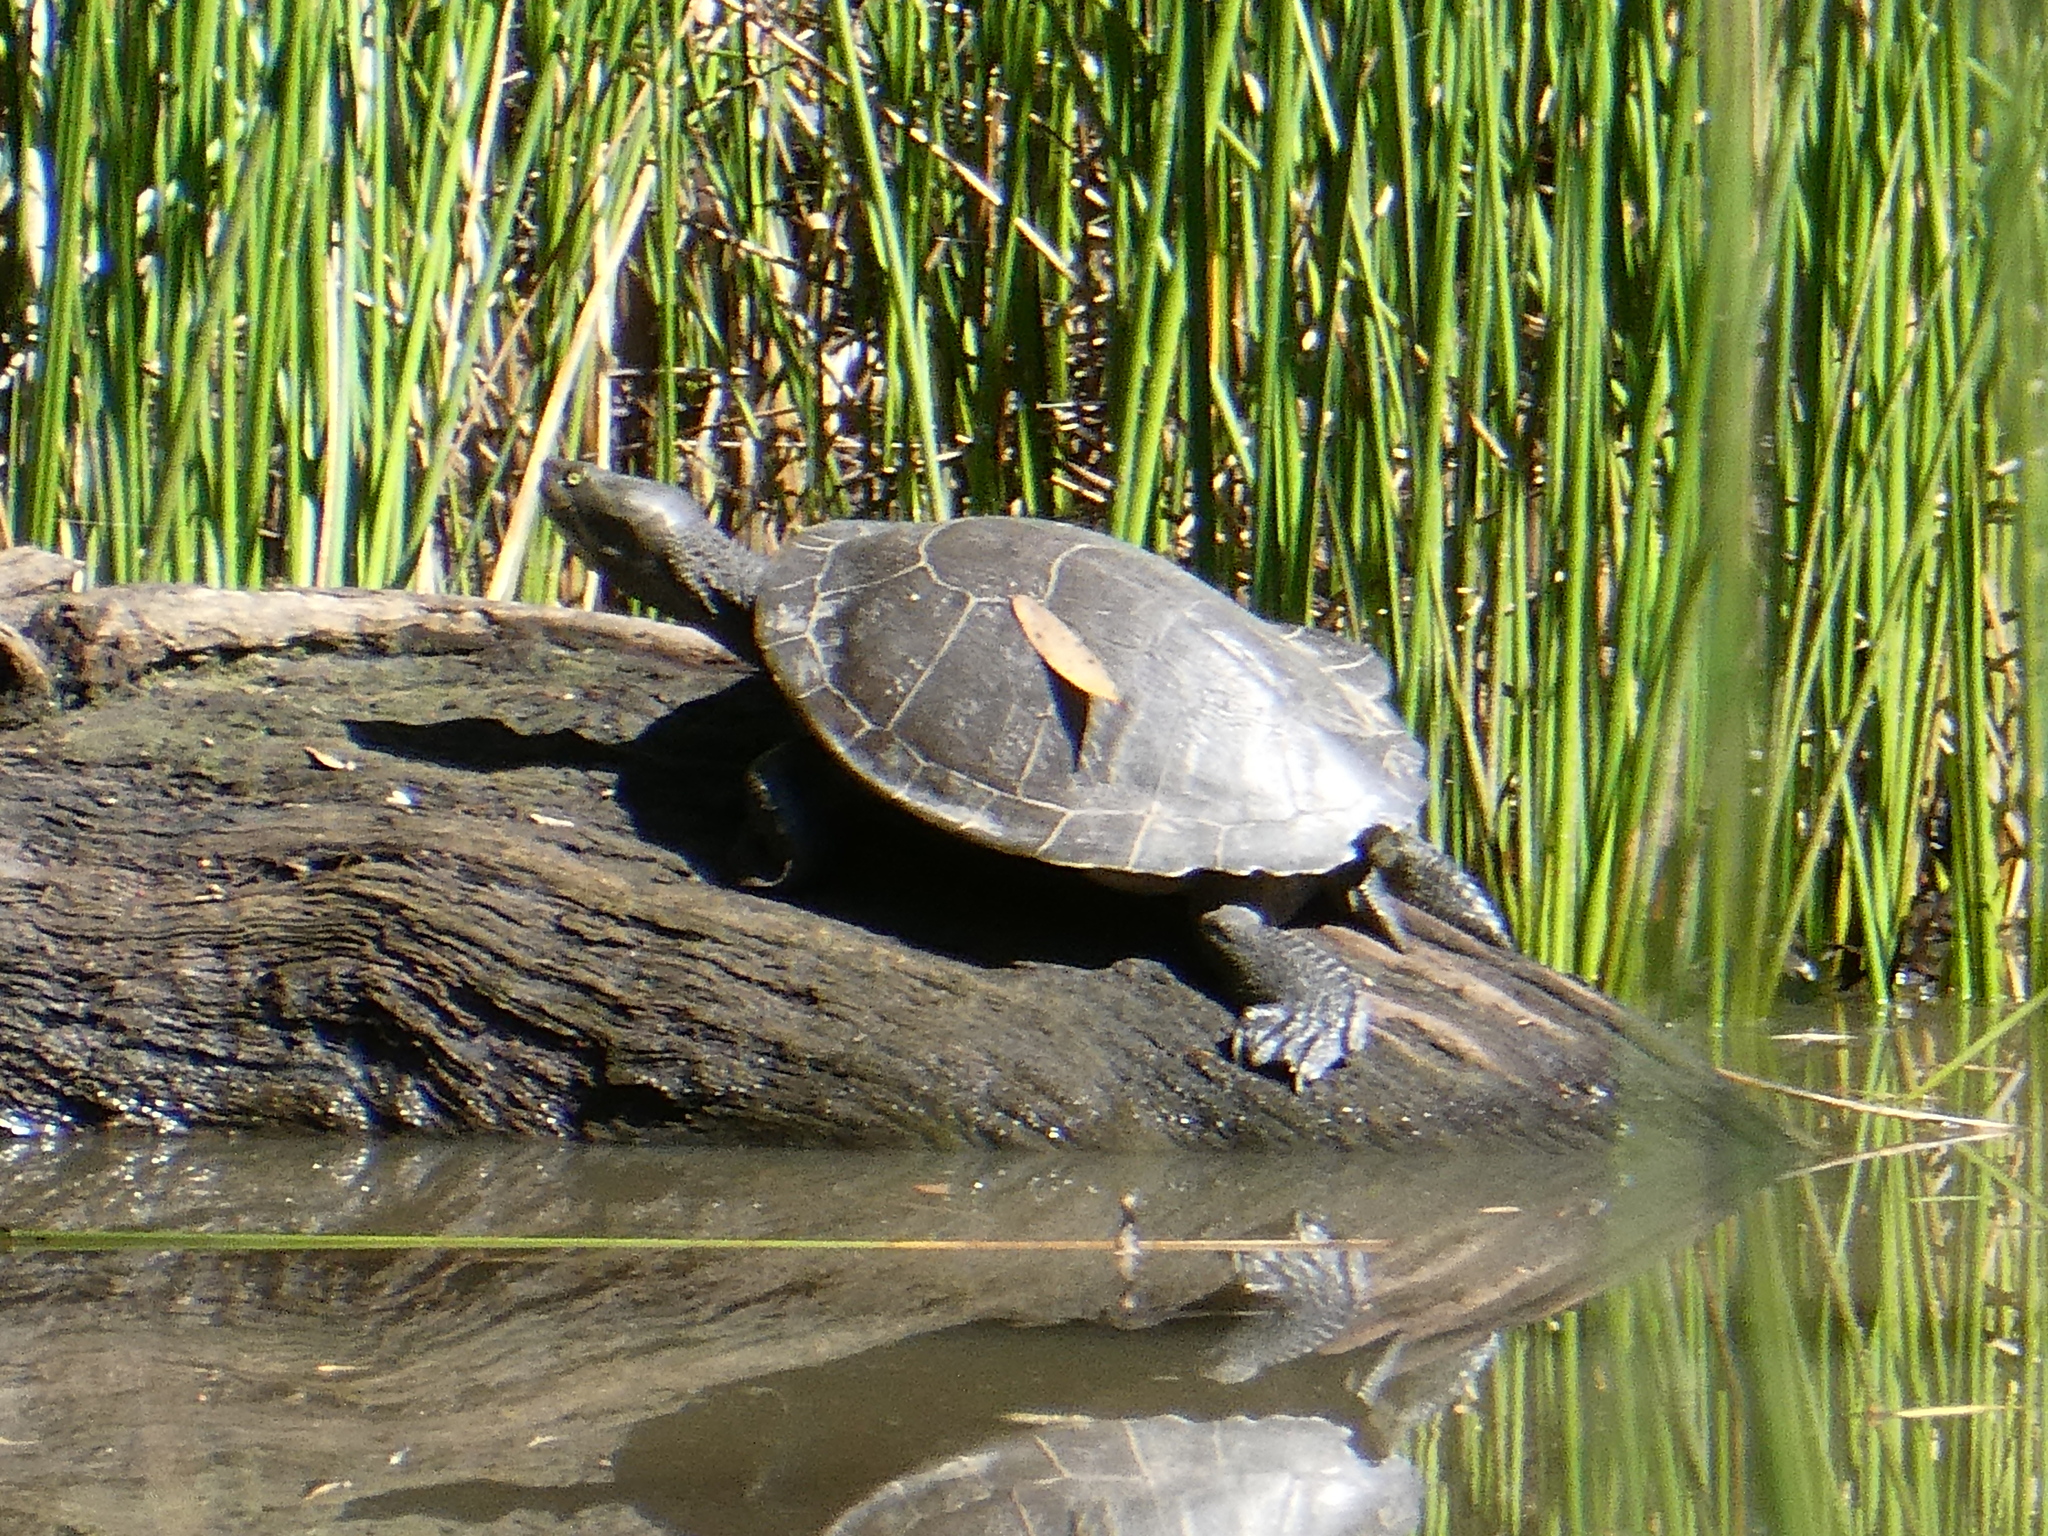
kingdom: Animalia
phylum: Chordata
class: Testudines
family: Chelidae
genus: Emydura
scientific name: Emydura macquarii
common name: Murray river turtle
